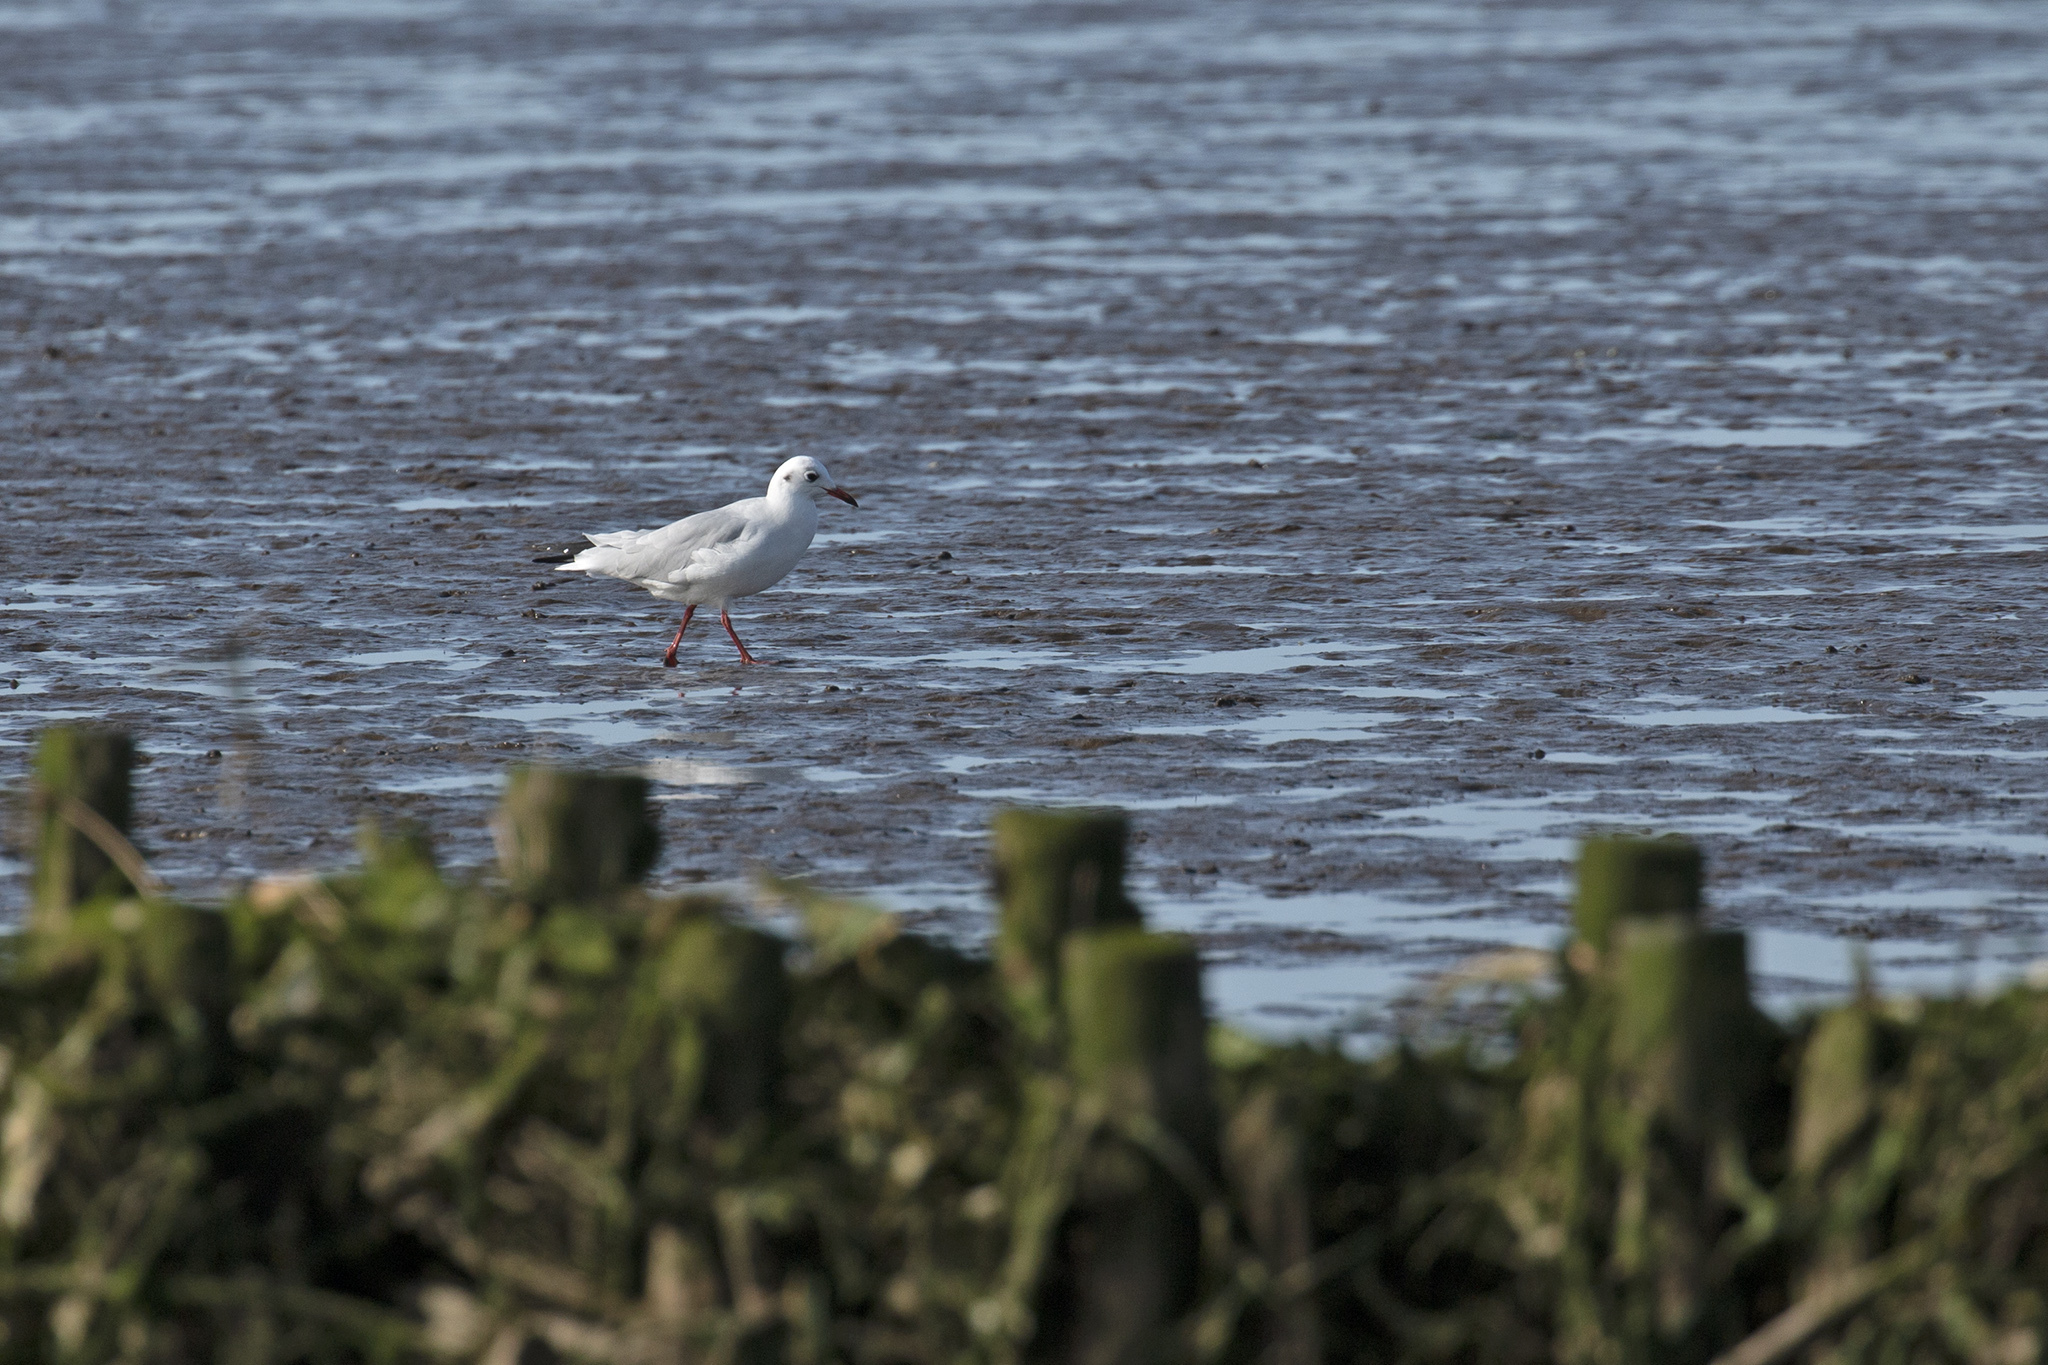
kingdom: Animalia
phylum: Chordata
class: Aves
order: Charadriiformes
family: Laridae
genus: Chroicocephalus
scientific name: Chroicocephalus ridibundus
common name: Black-headed gull
